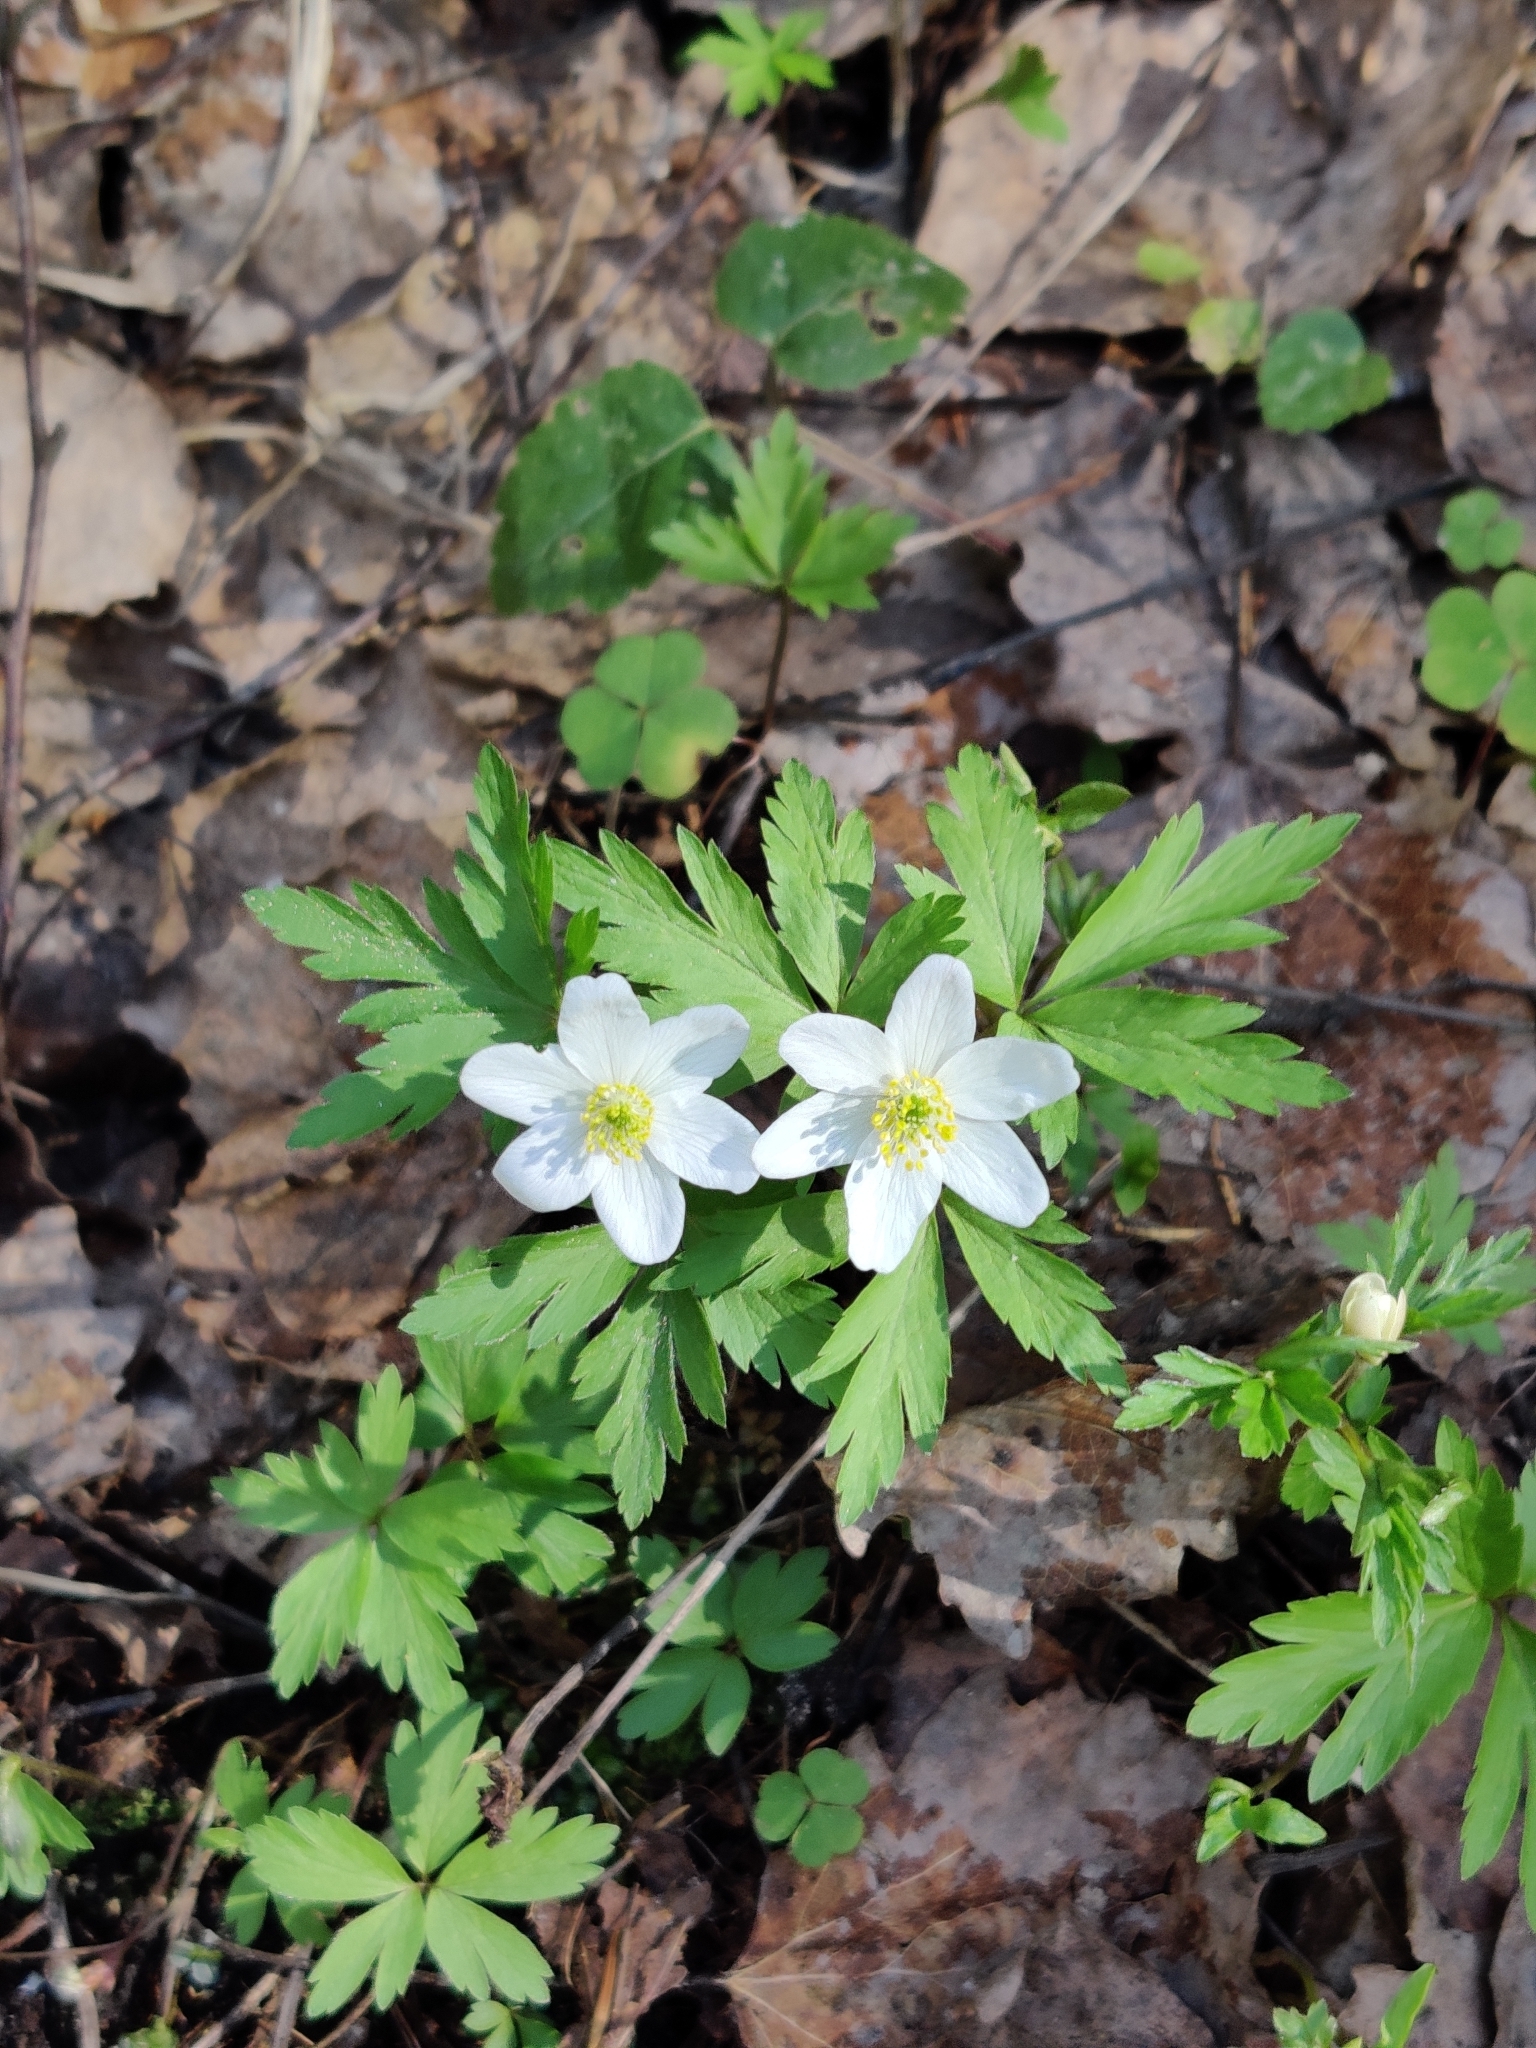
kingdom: Plantae
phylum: Tracheophyta
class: Magnoliopsida
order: Ranunculales
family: Ranunculaceae
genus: Anemone
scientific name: Anemone nemorosa
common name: Wood anemone
